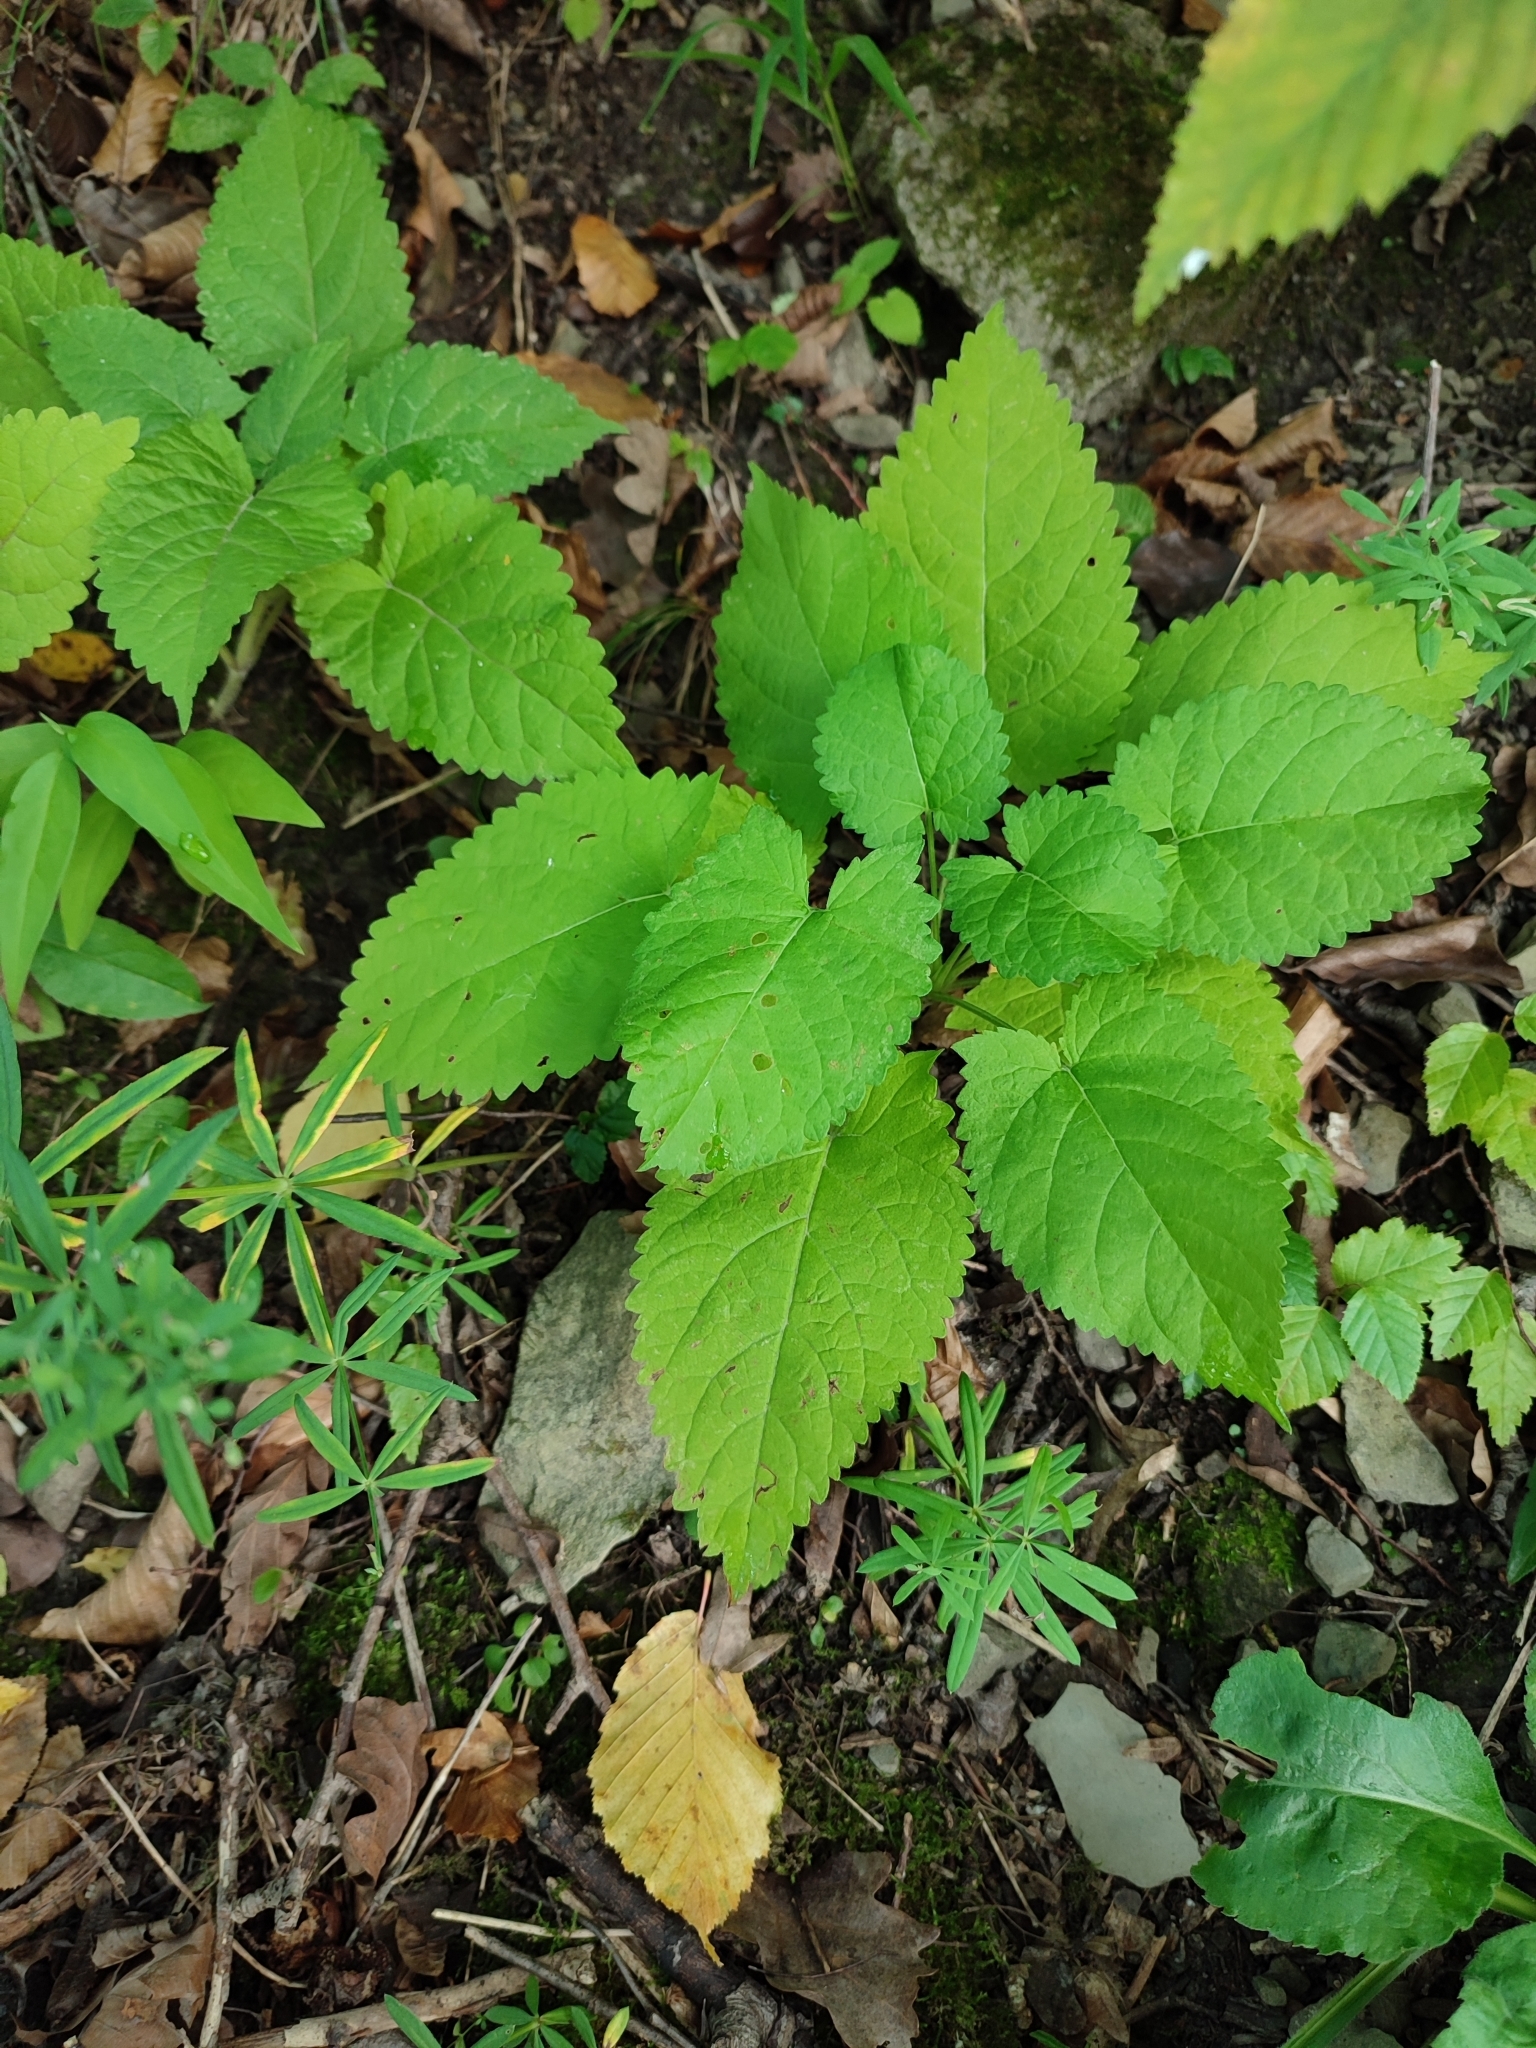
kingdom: Plantae
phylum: Tracheophyta
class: Magnoliopsida
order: Lamiales
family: Lamiaceae
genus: Salvia
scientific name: Salvia glutinosa
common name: Sticky clary
